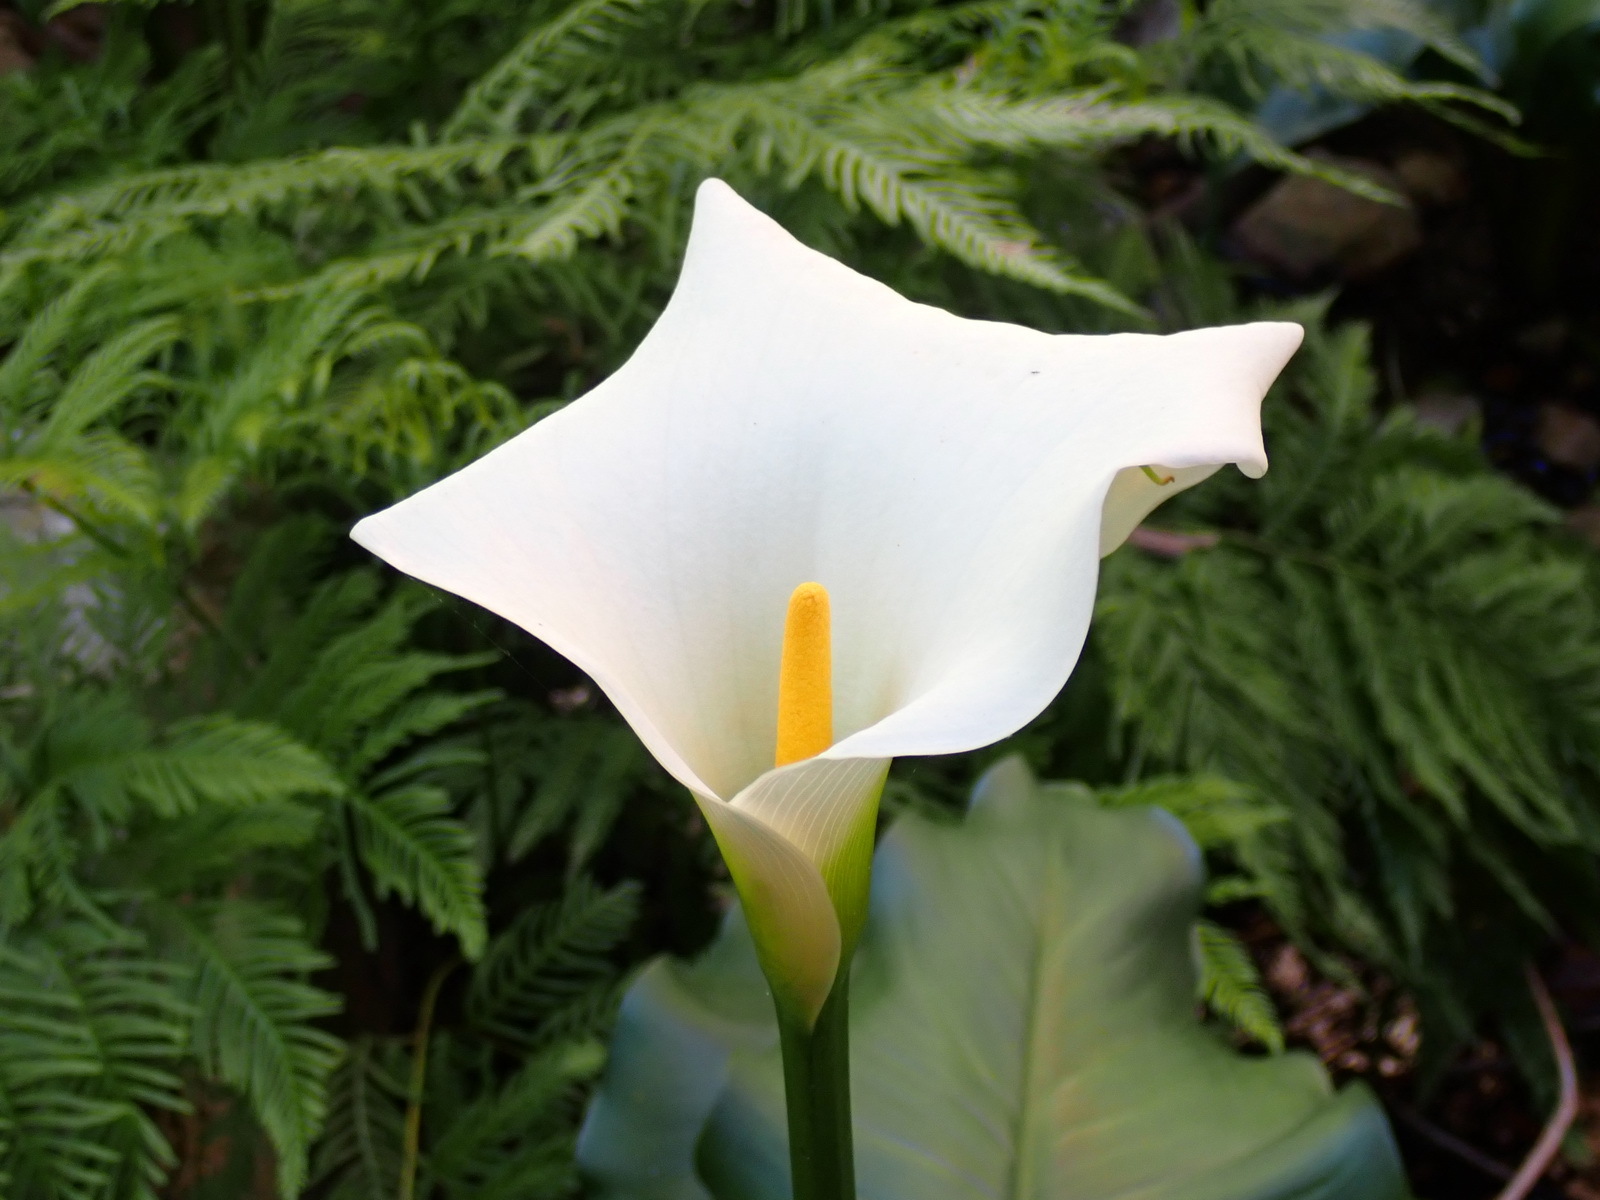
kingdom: Plantae
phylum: Tracheophyta
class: Liliopsida
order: Alismatales
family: Araceae
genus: Zantedeschia
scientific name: Zantedeschia aethiopica
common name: Altar-lily
